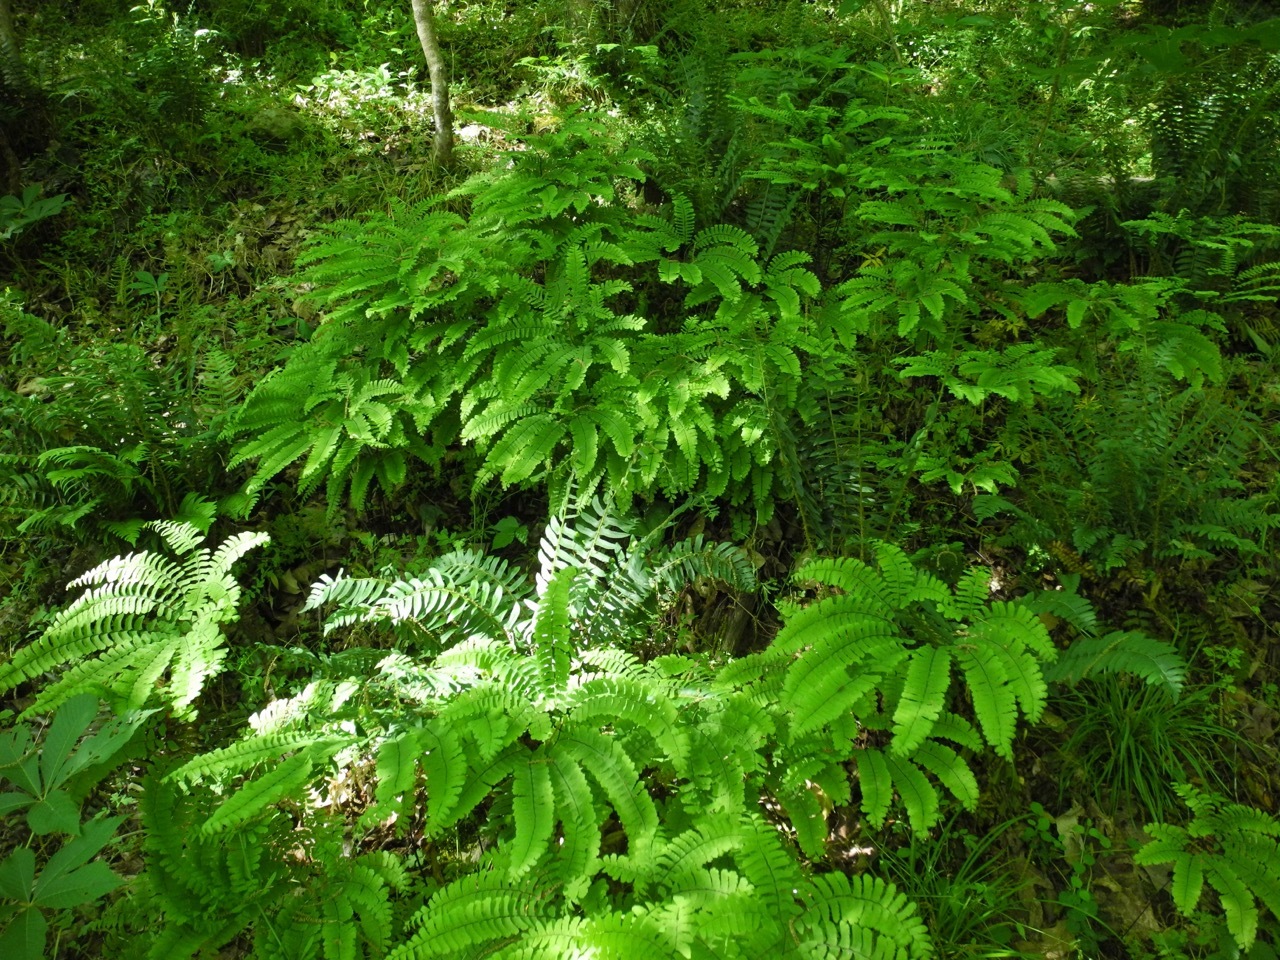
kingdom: Plantae
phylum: Tracheophyta
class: Polypodiopsida
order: Polypodiales
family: Pteridaceae
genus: Adiantum
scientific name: Adiantum pedatum
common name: Five-finger fern
